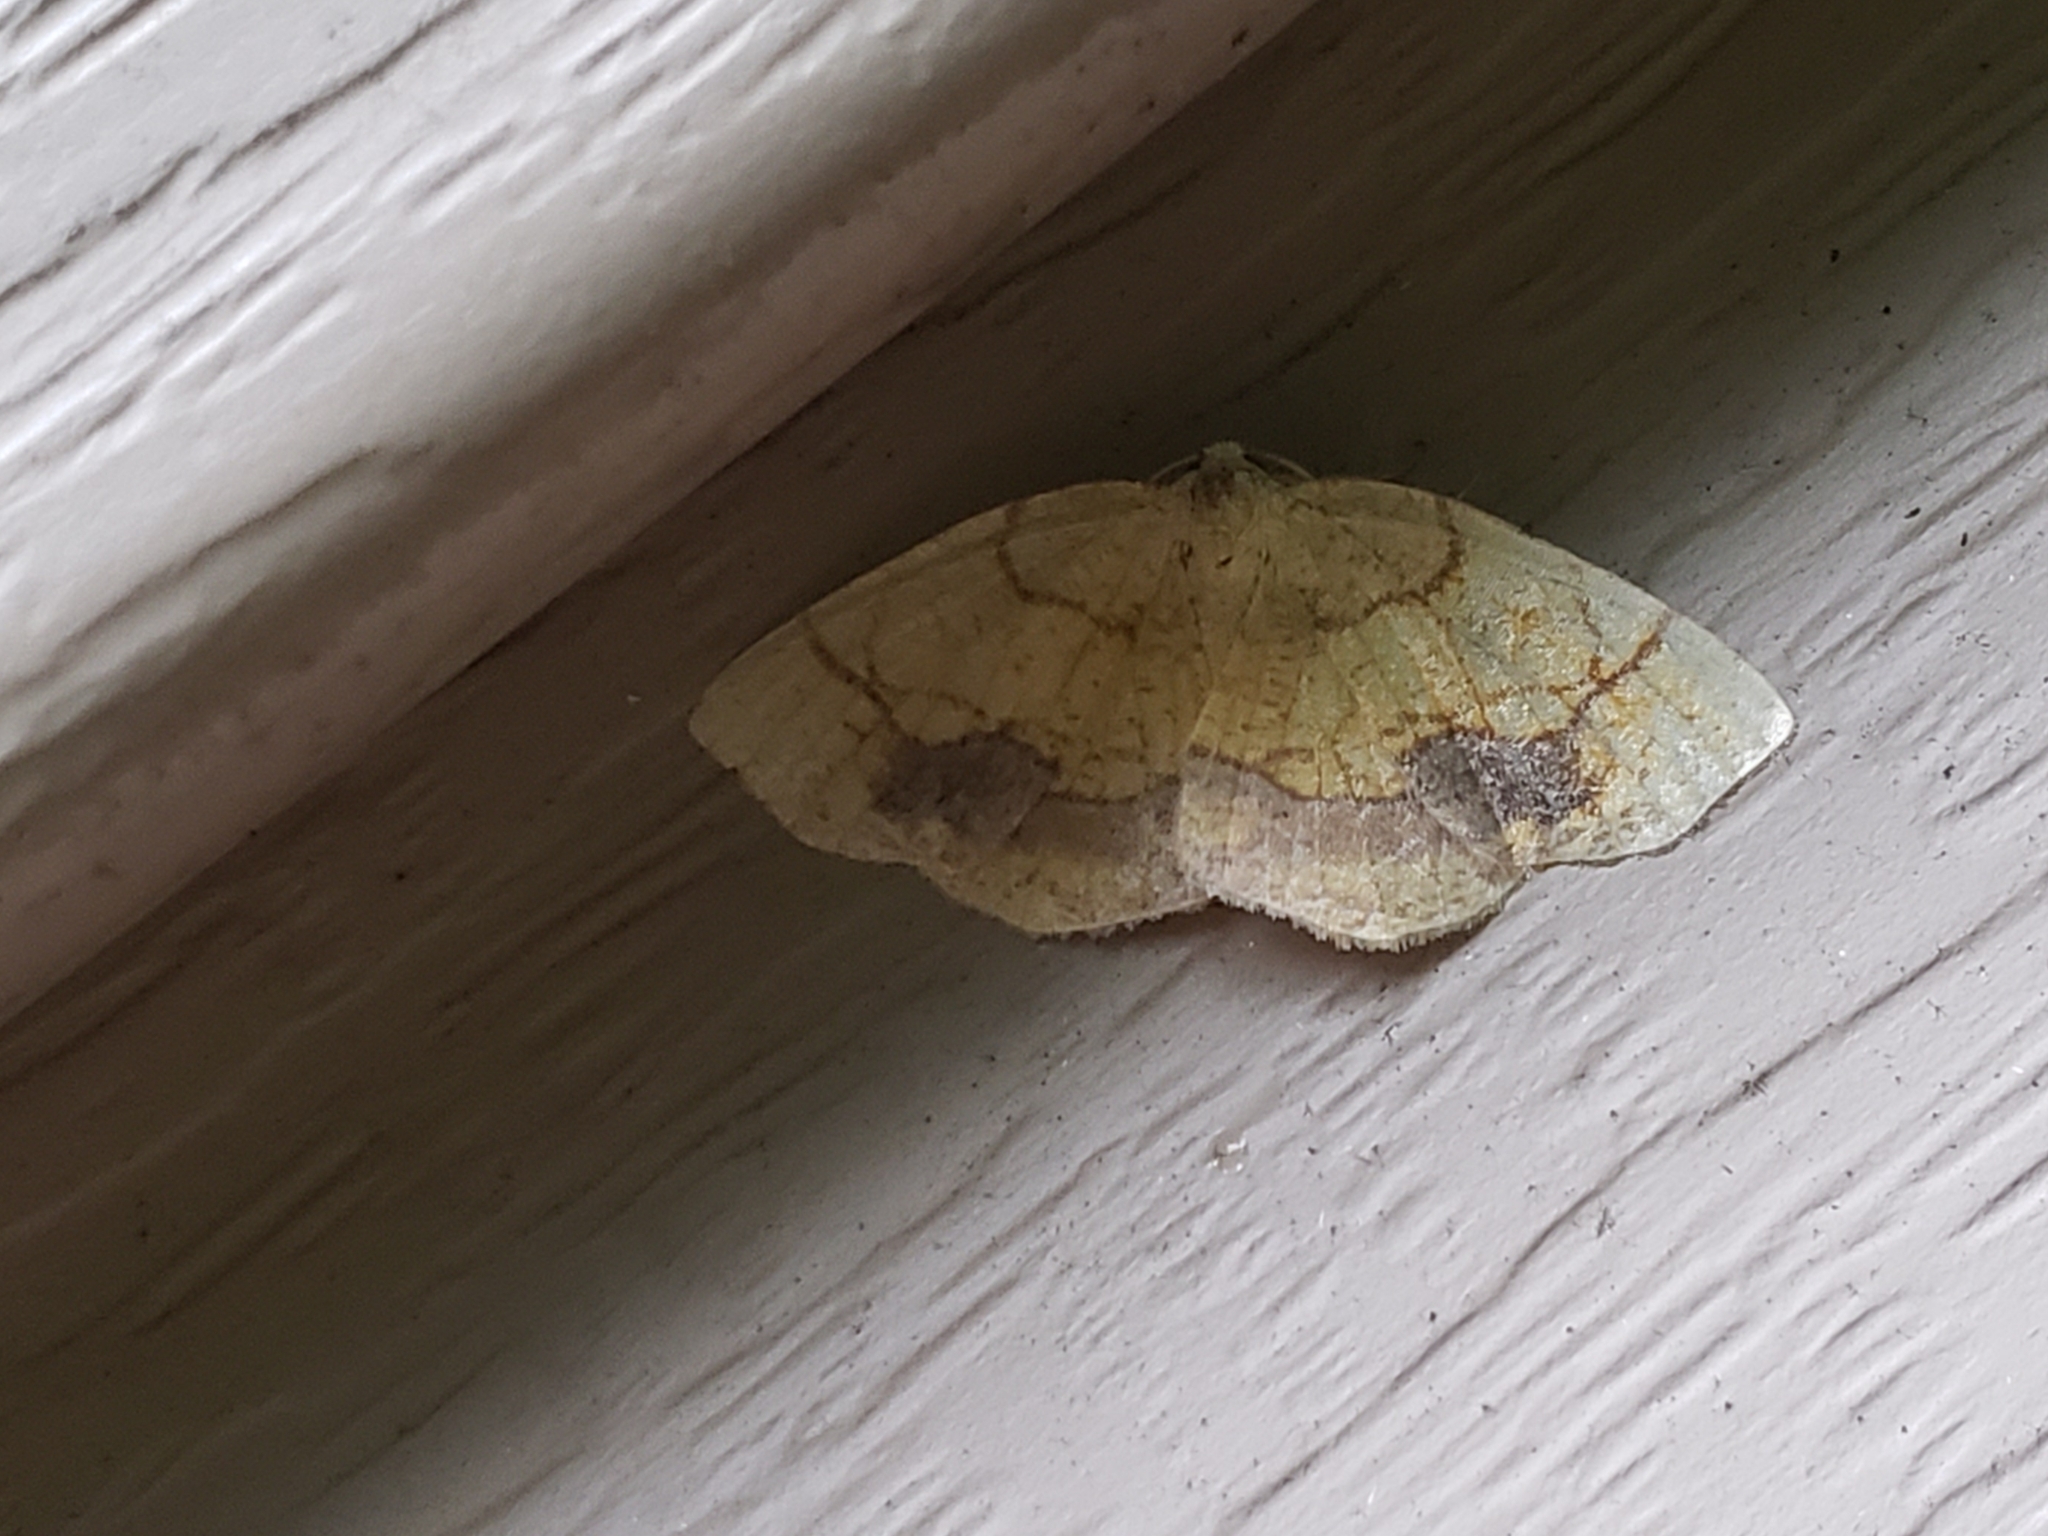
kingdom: Animalia
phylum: Arthropoda
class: Insecta
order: Lepidoptera
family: Geometridae
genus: Nematocampa
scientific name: Nematocampa resistaria
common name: Horned spanworm moth
